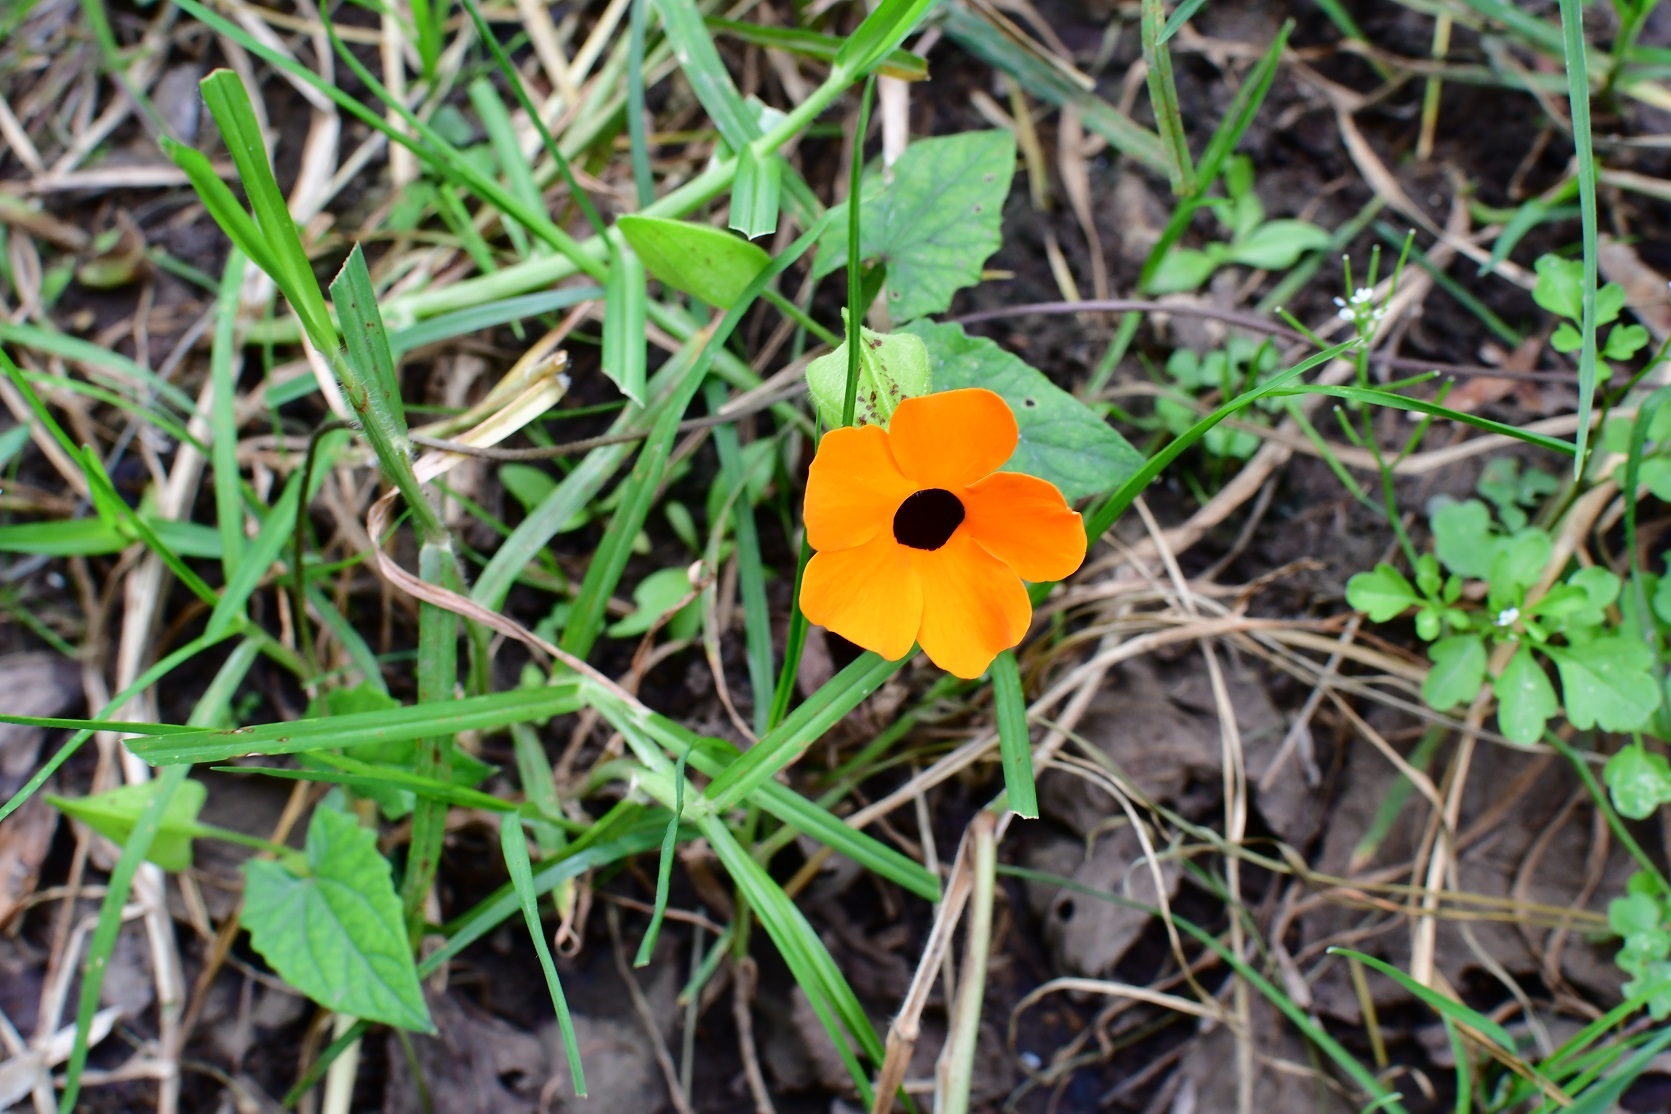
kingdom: Plantae
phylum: Tracheophyta
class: Magnoliopsida
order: Lamiales
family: Acanthaceae
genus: Thunbergia
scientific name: Thunbergia alata
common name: Blackeyed susan vine
